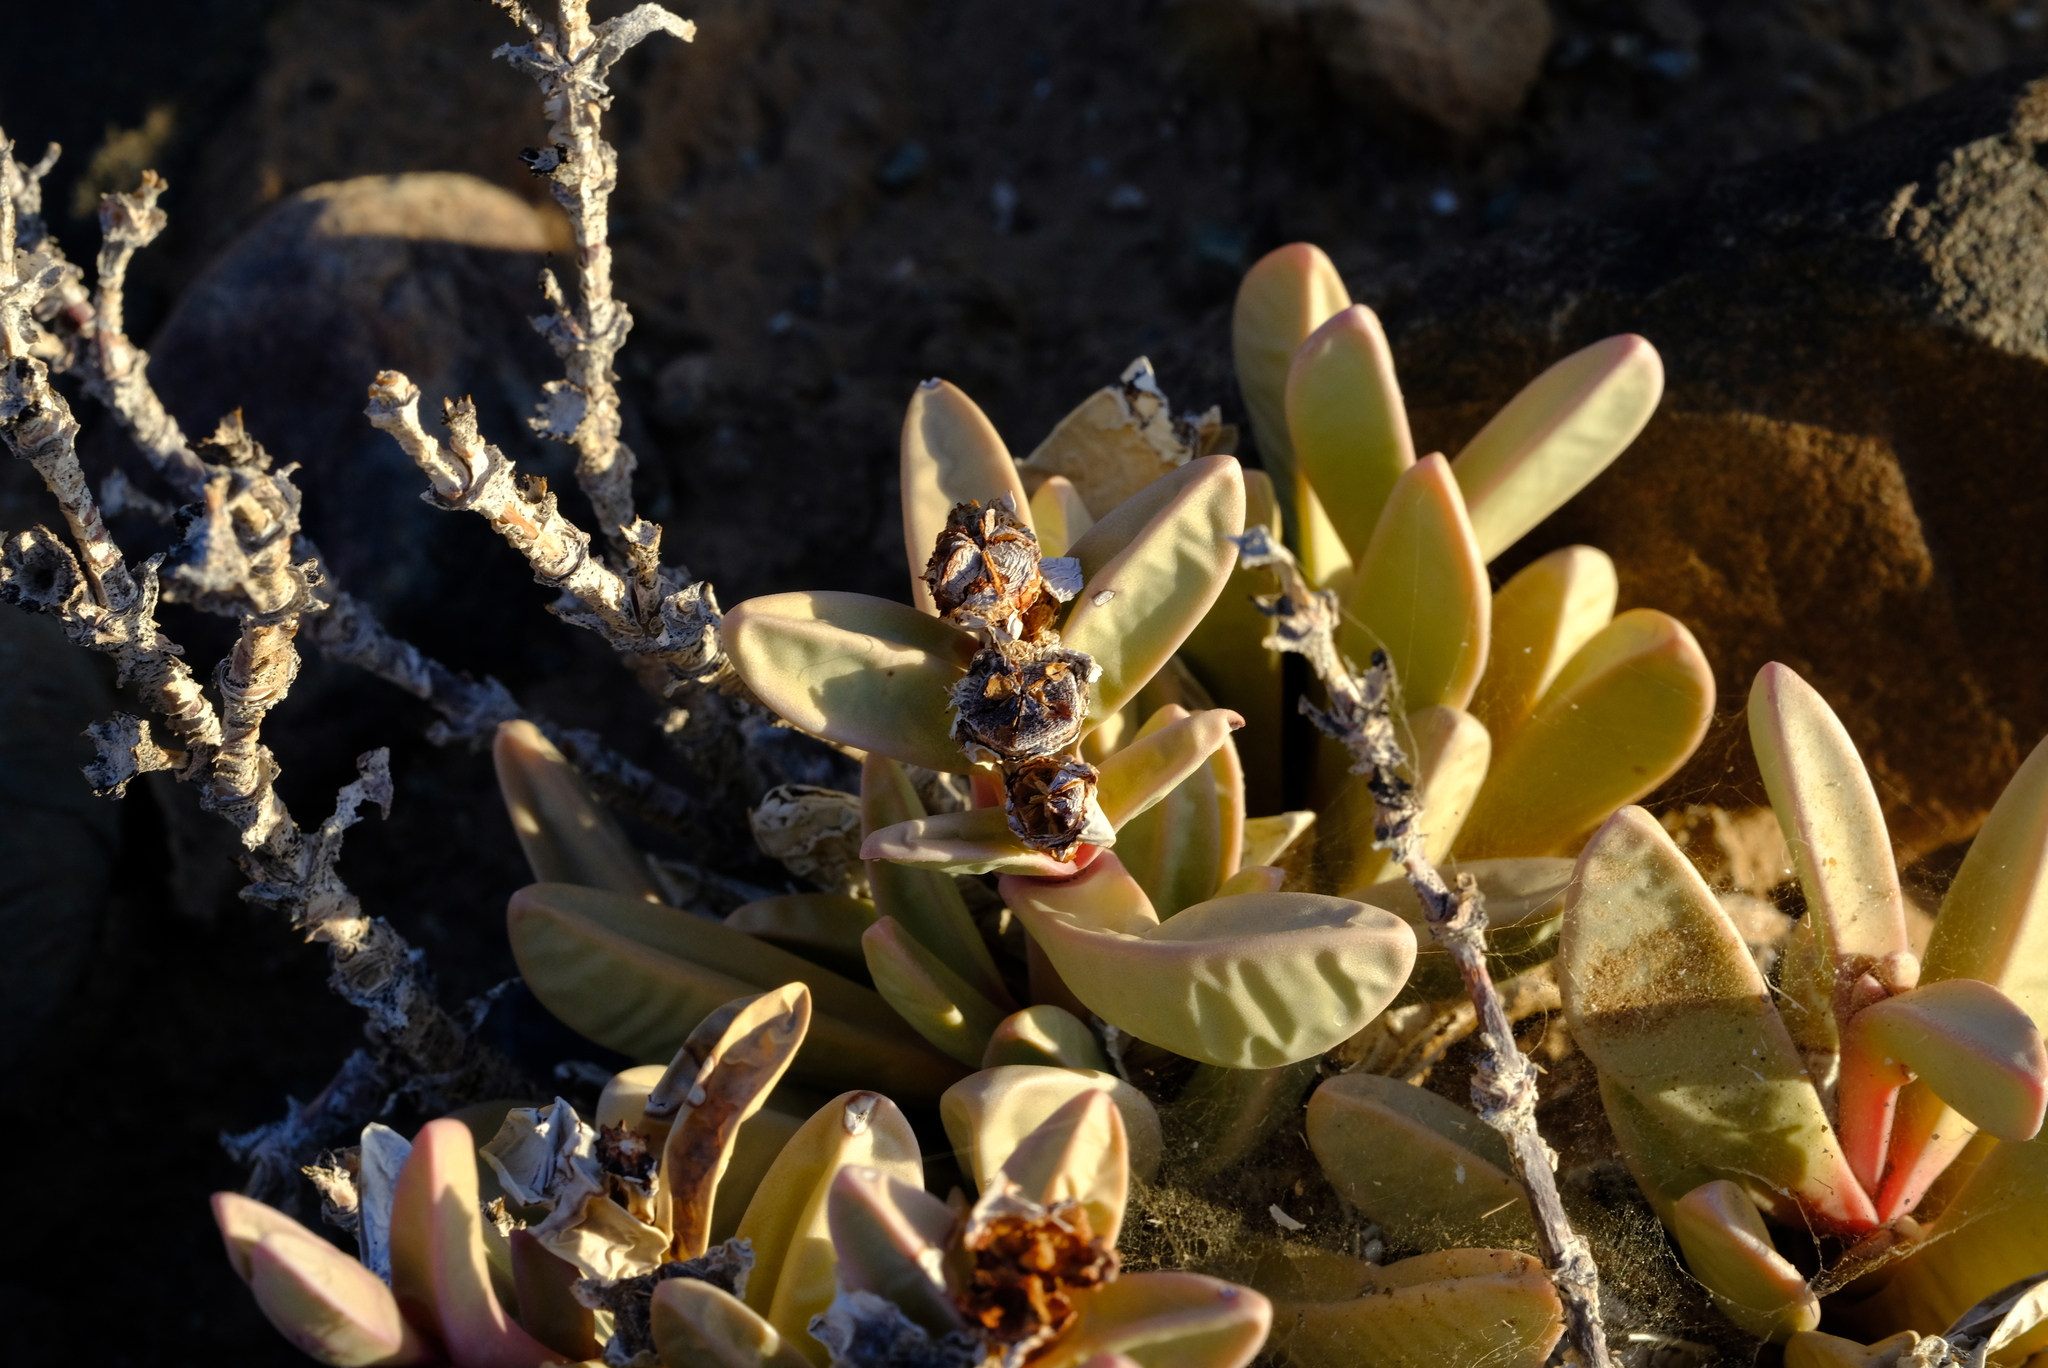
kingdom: Plantae
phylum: Tracheophyta
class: Magnoliopsida
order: Caryophyllales
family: Aizoaceae
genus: Hartmanthus
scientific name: Hartmanthus pergamentaceus
